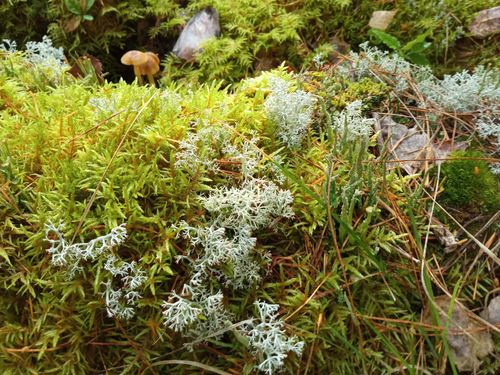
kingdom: Fungi
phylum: Ascomycota
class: Lecanoromycetes
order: Lecanorales
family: Cladoniaceae
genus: Cladonia
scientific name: Cladonia arbuscula
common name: Reindeer lichen
